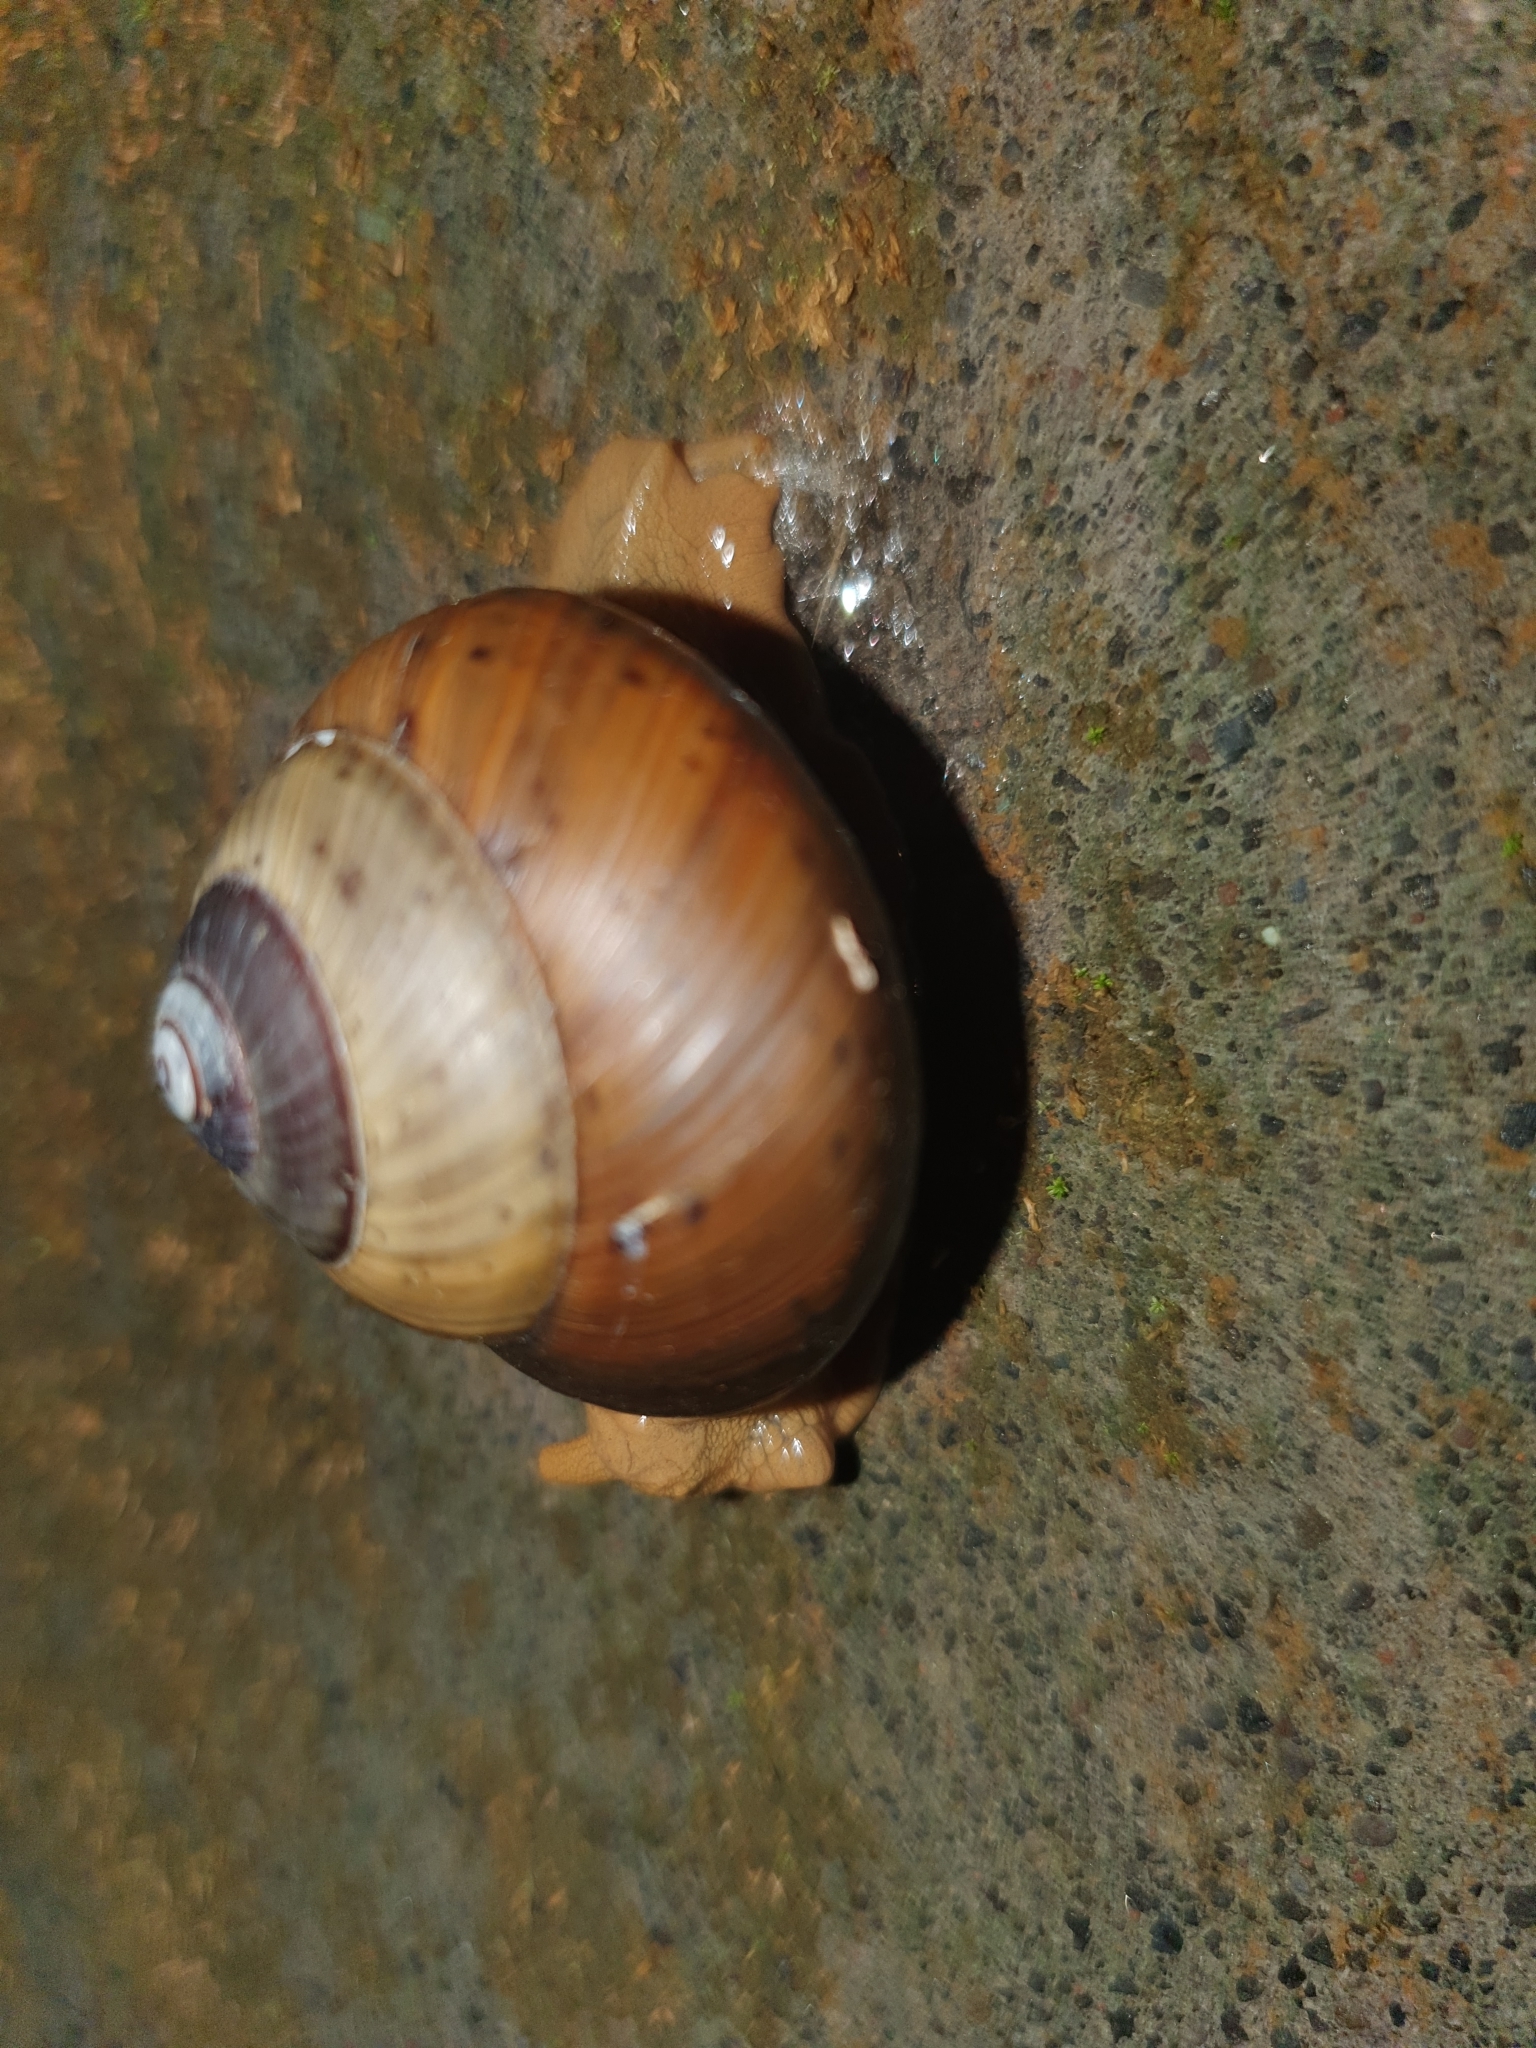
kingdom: Animalia
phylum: Mollusca
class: Gastropoda
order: Stylommatophora
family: Dyakiidae
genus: Asperitas
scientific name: Asperitas sparsa
